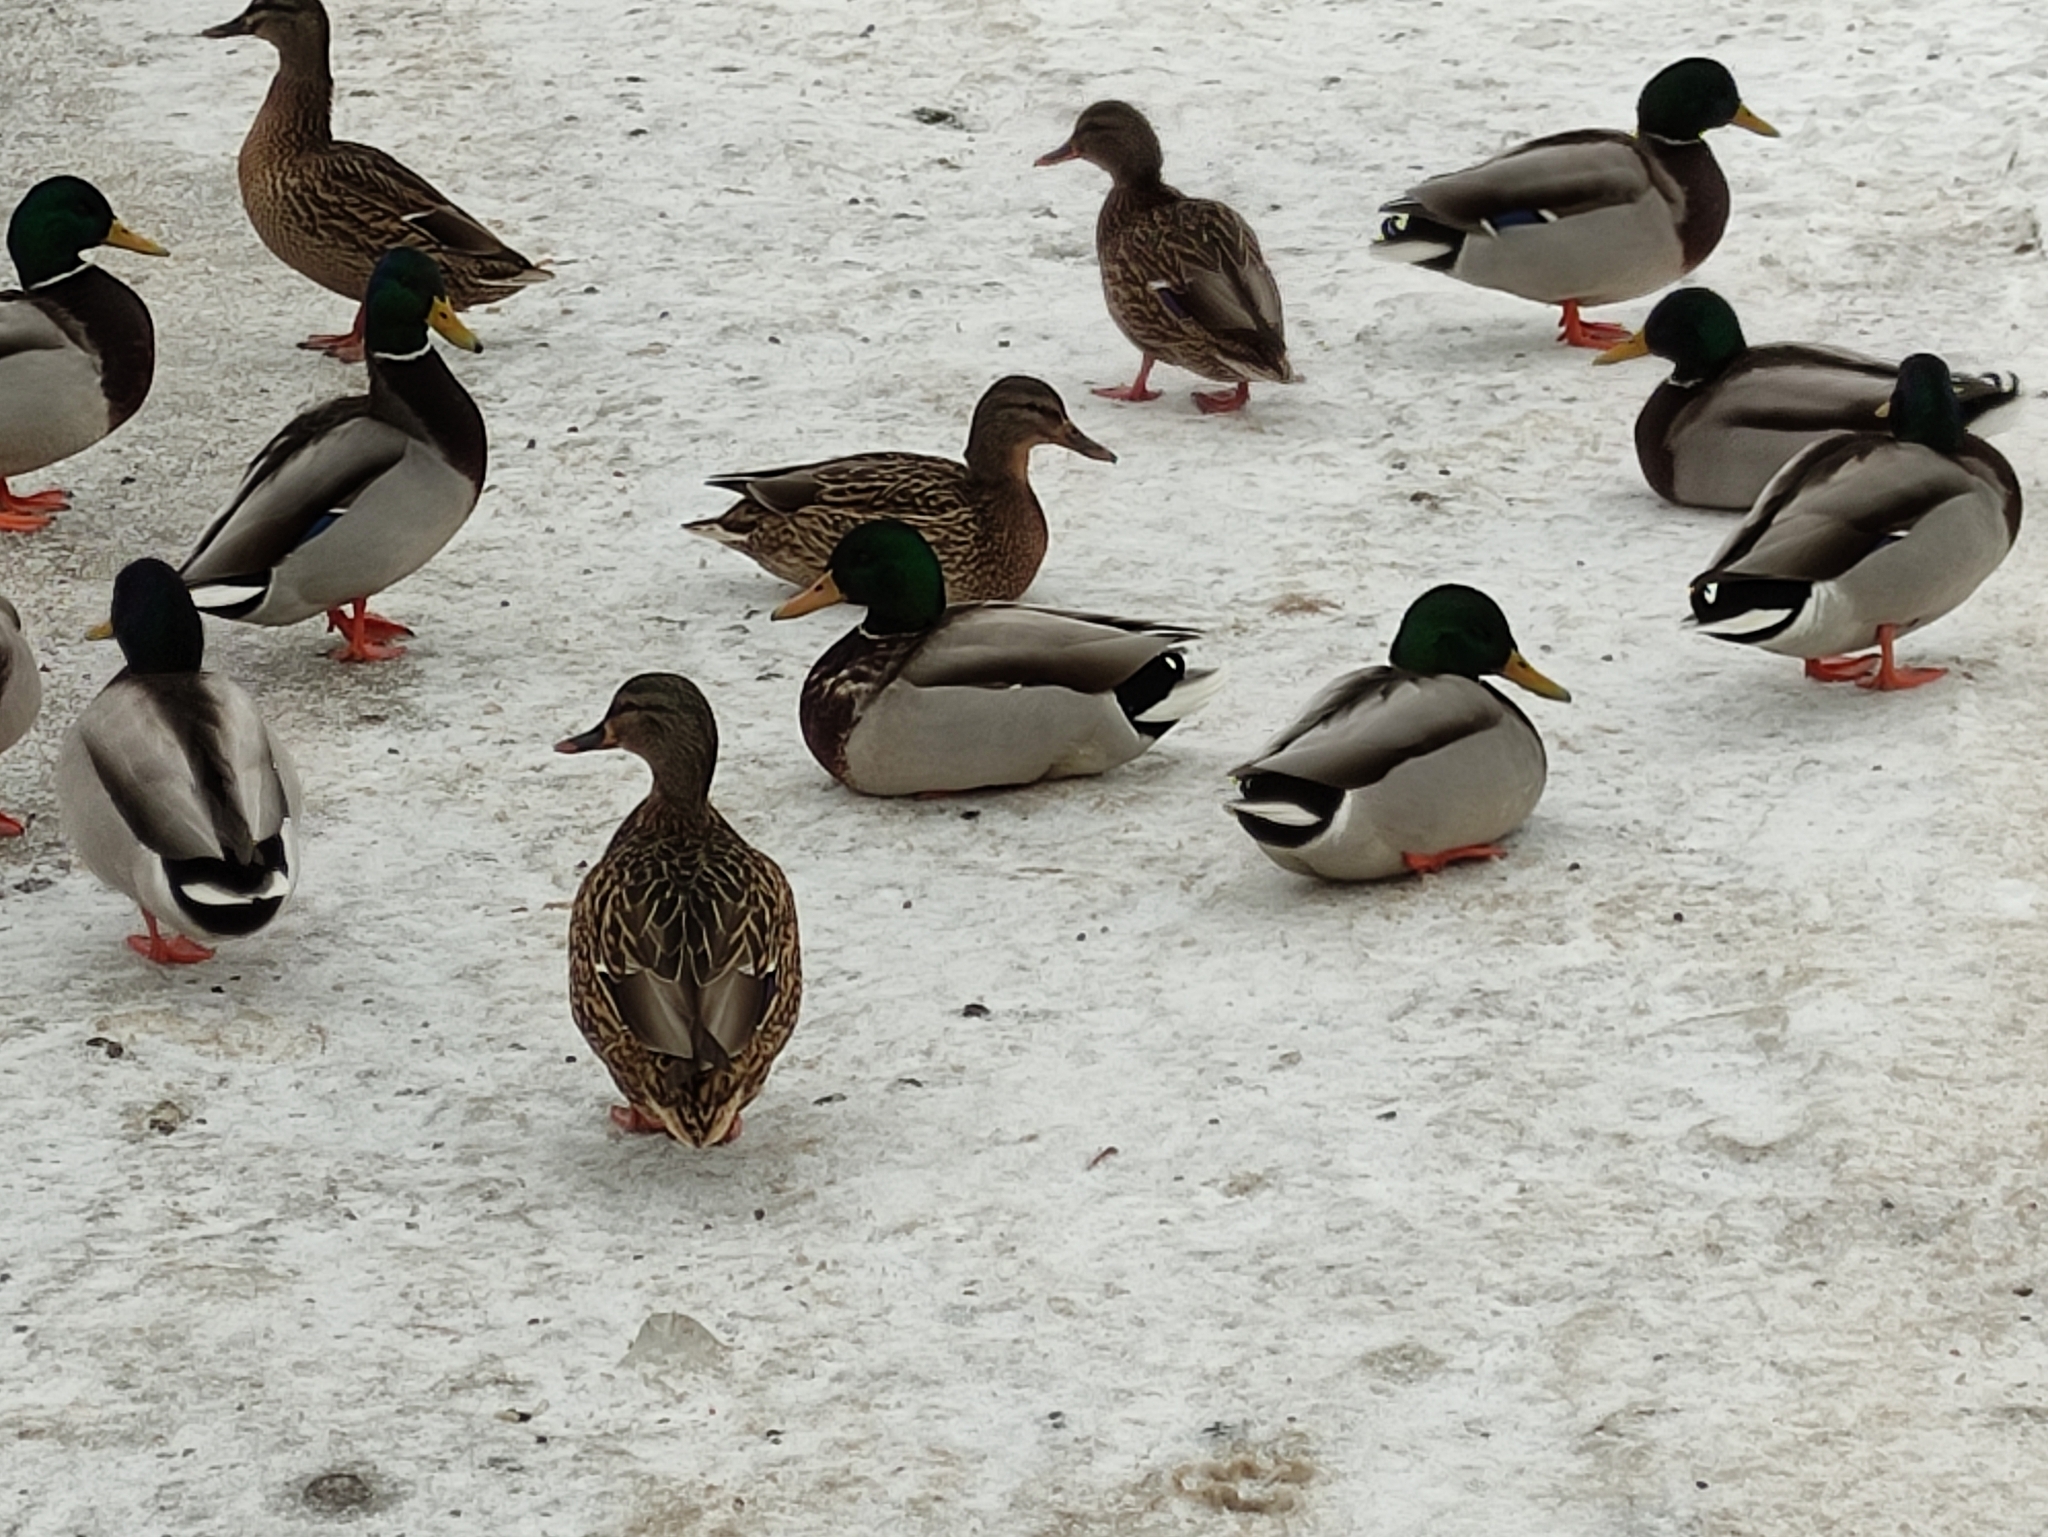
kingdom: Animalia
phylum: Chordata
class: Aves
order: Anseriformes
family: Anatidae
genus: Anas
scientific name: Anas platyrhynchos
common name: Mallard
